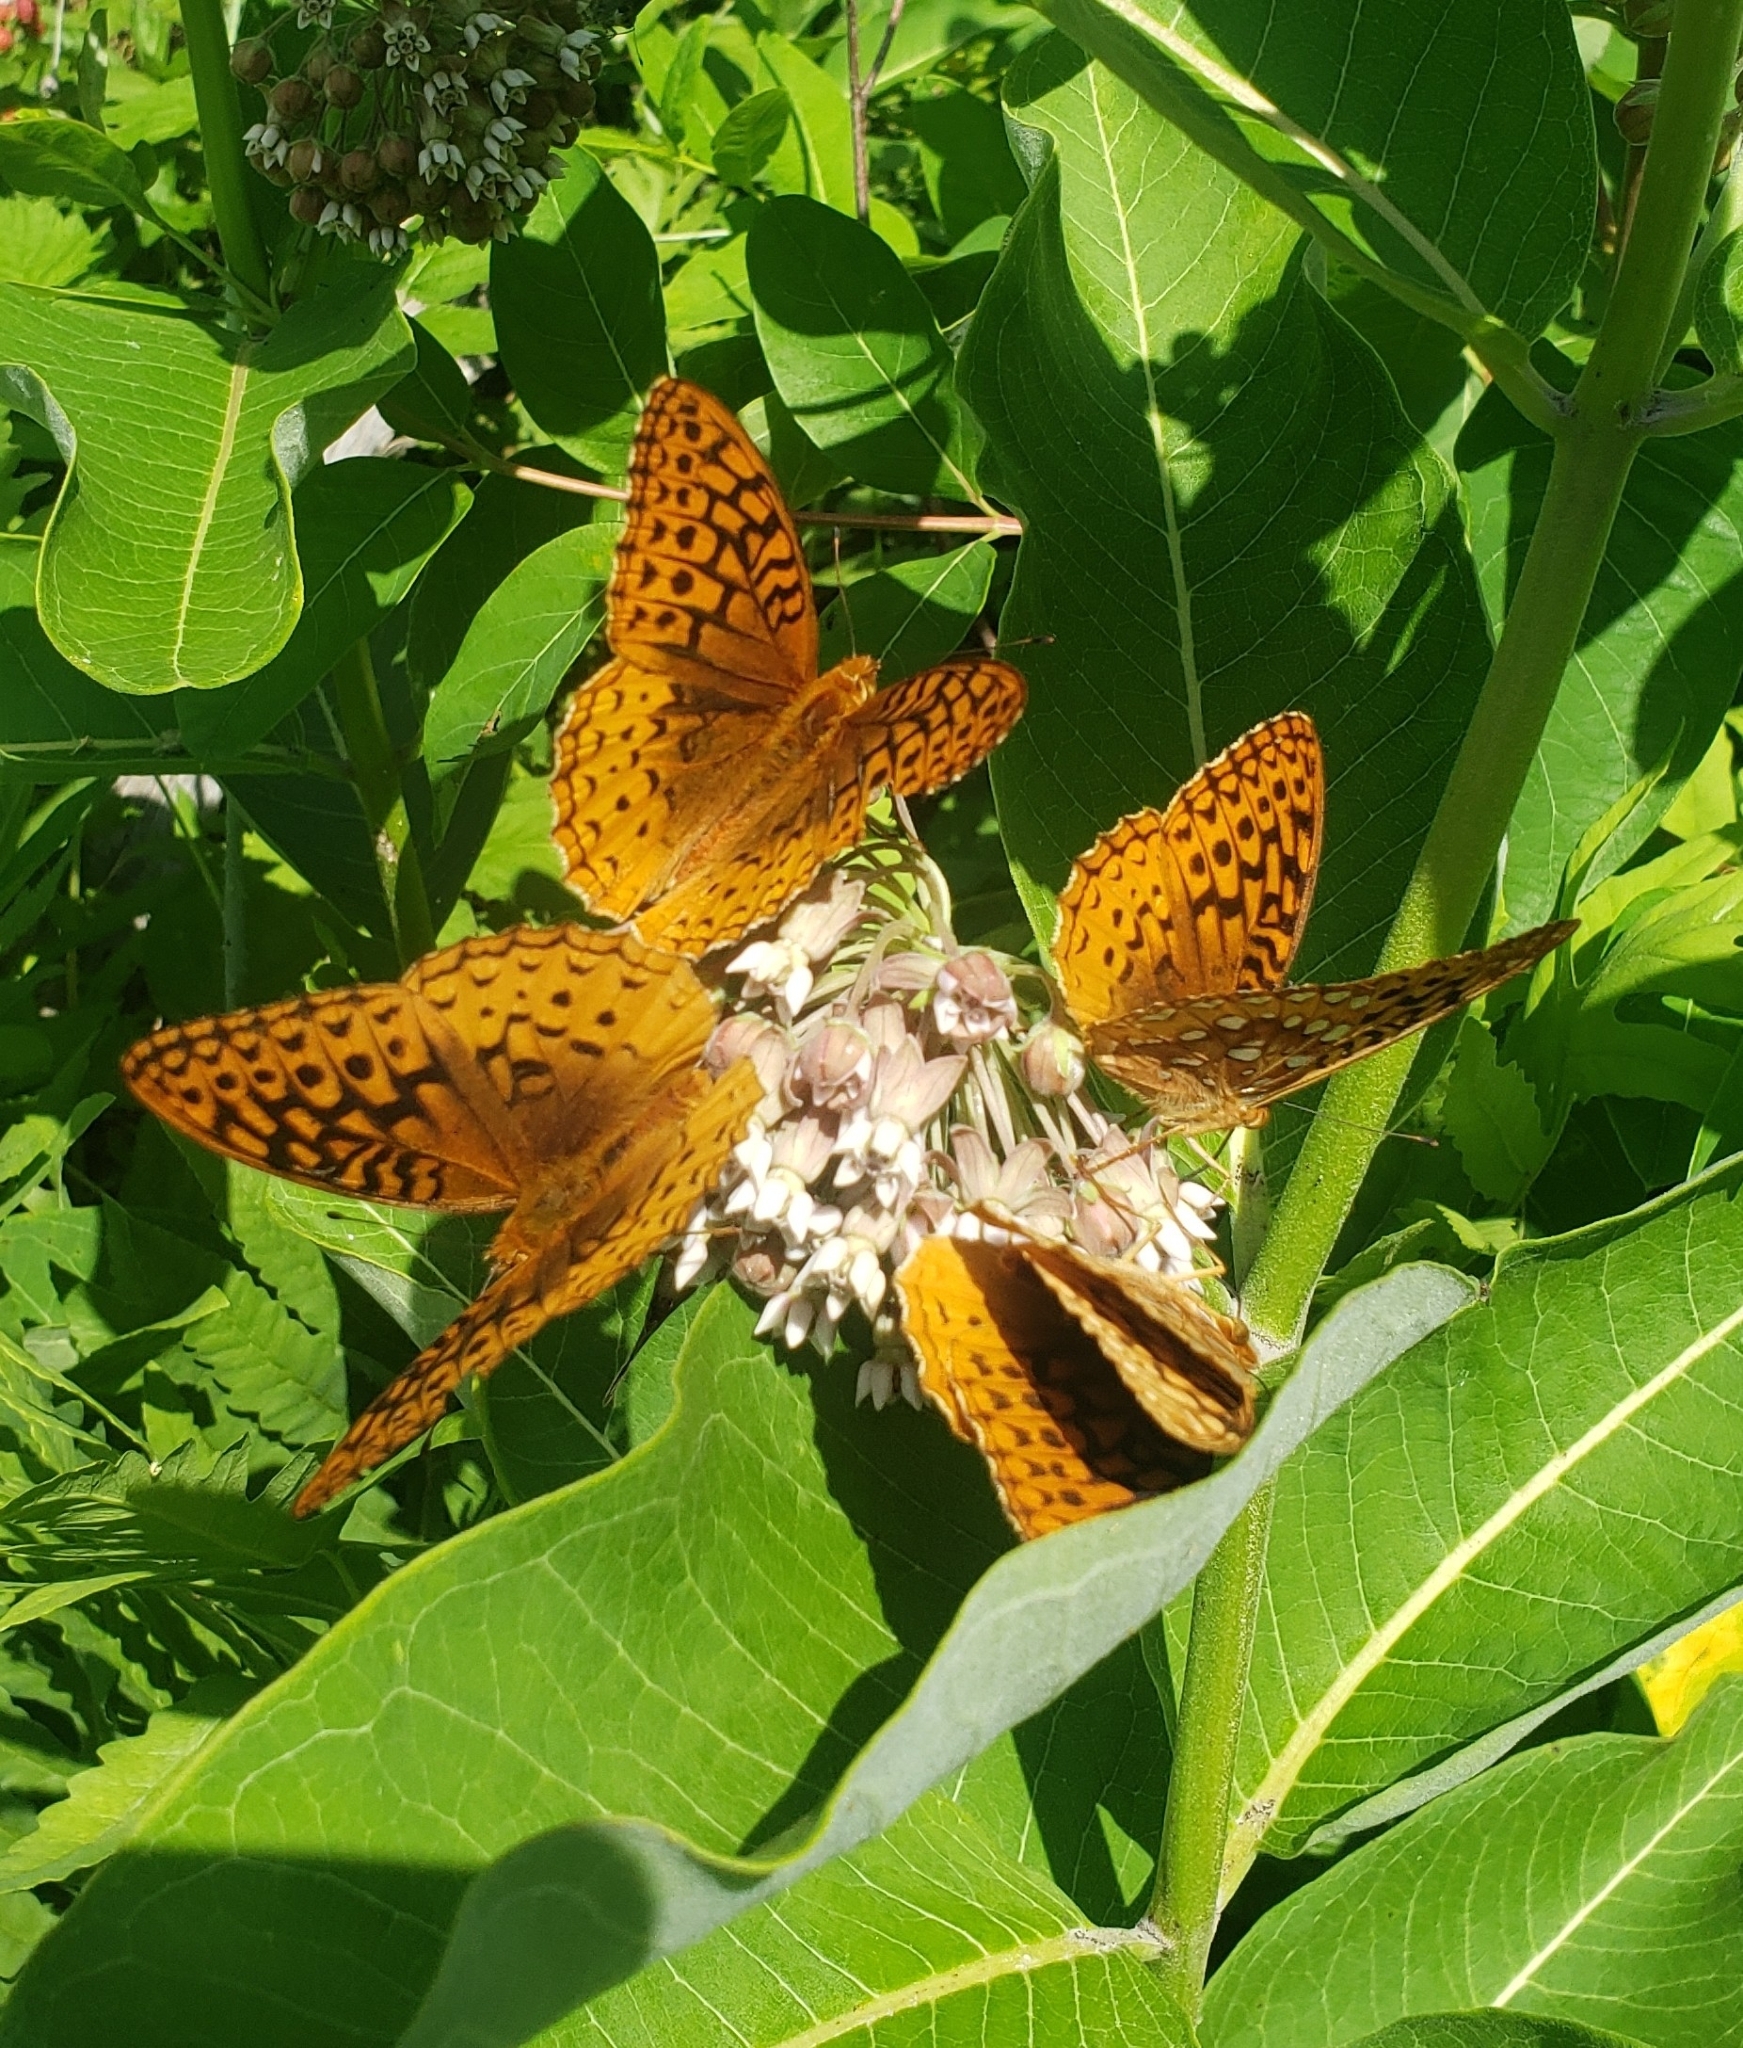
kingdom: Animalia
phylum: Arthropoda
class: Insecta
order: Lepidoptera
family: Nymphalidae
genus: Speyeria
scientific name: Speyeria cybele
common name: Great spangled fritillary
